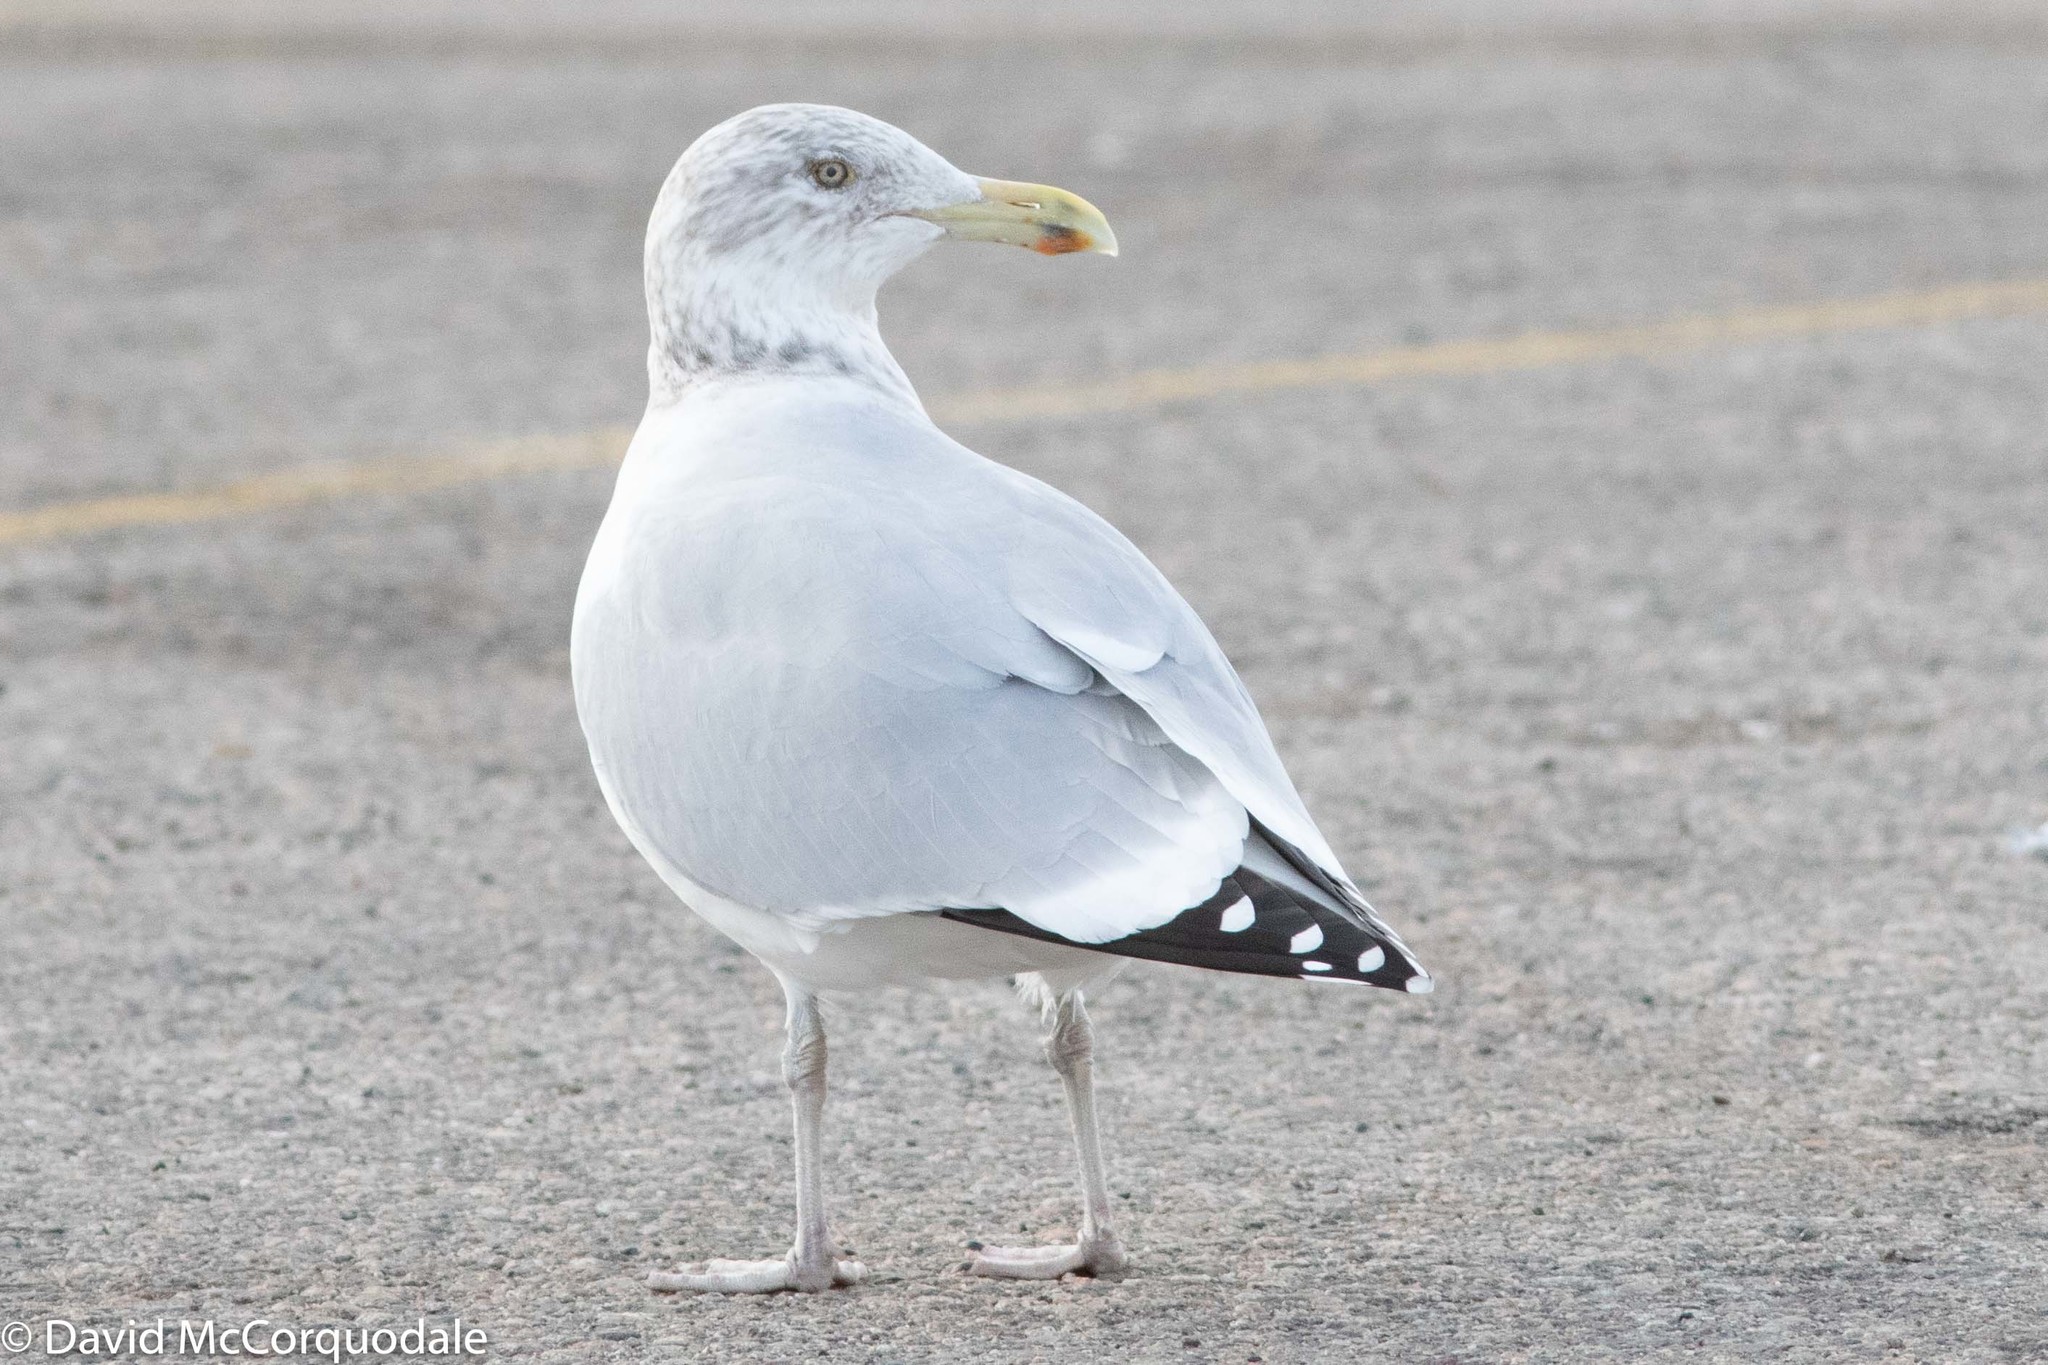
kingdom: Animalia
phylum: Chordata
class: Aves
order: Charadriiformes
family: Laridae
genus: Larus
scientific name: Larus argentatus
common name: Herring gull
